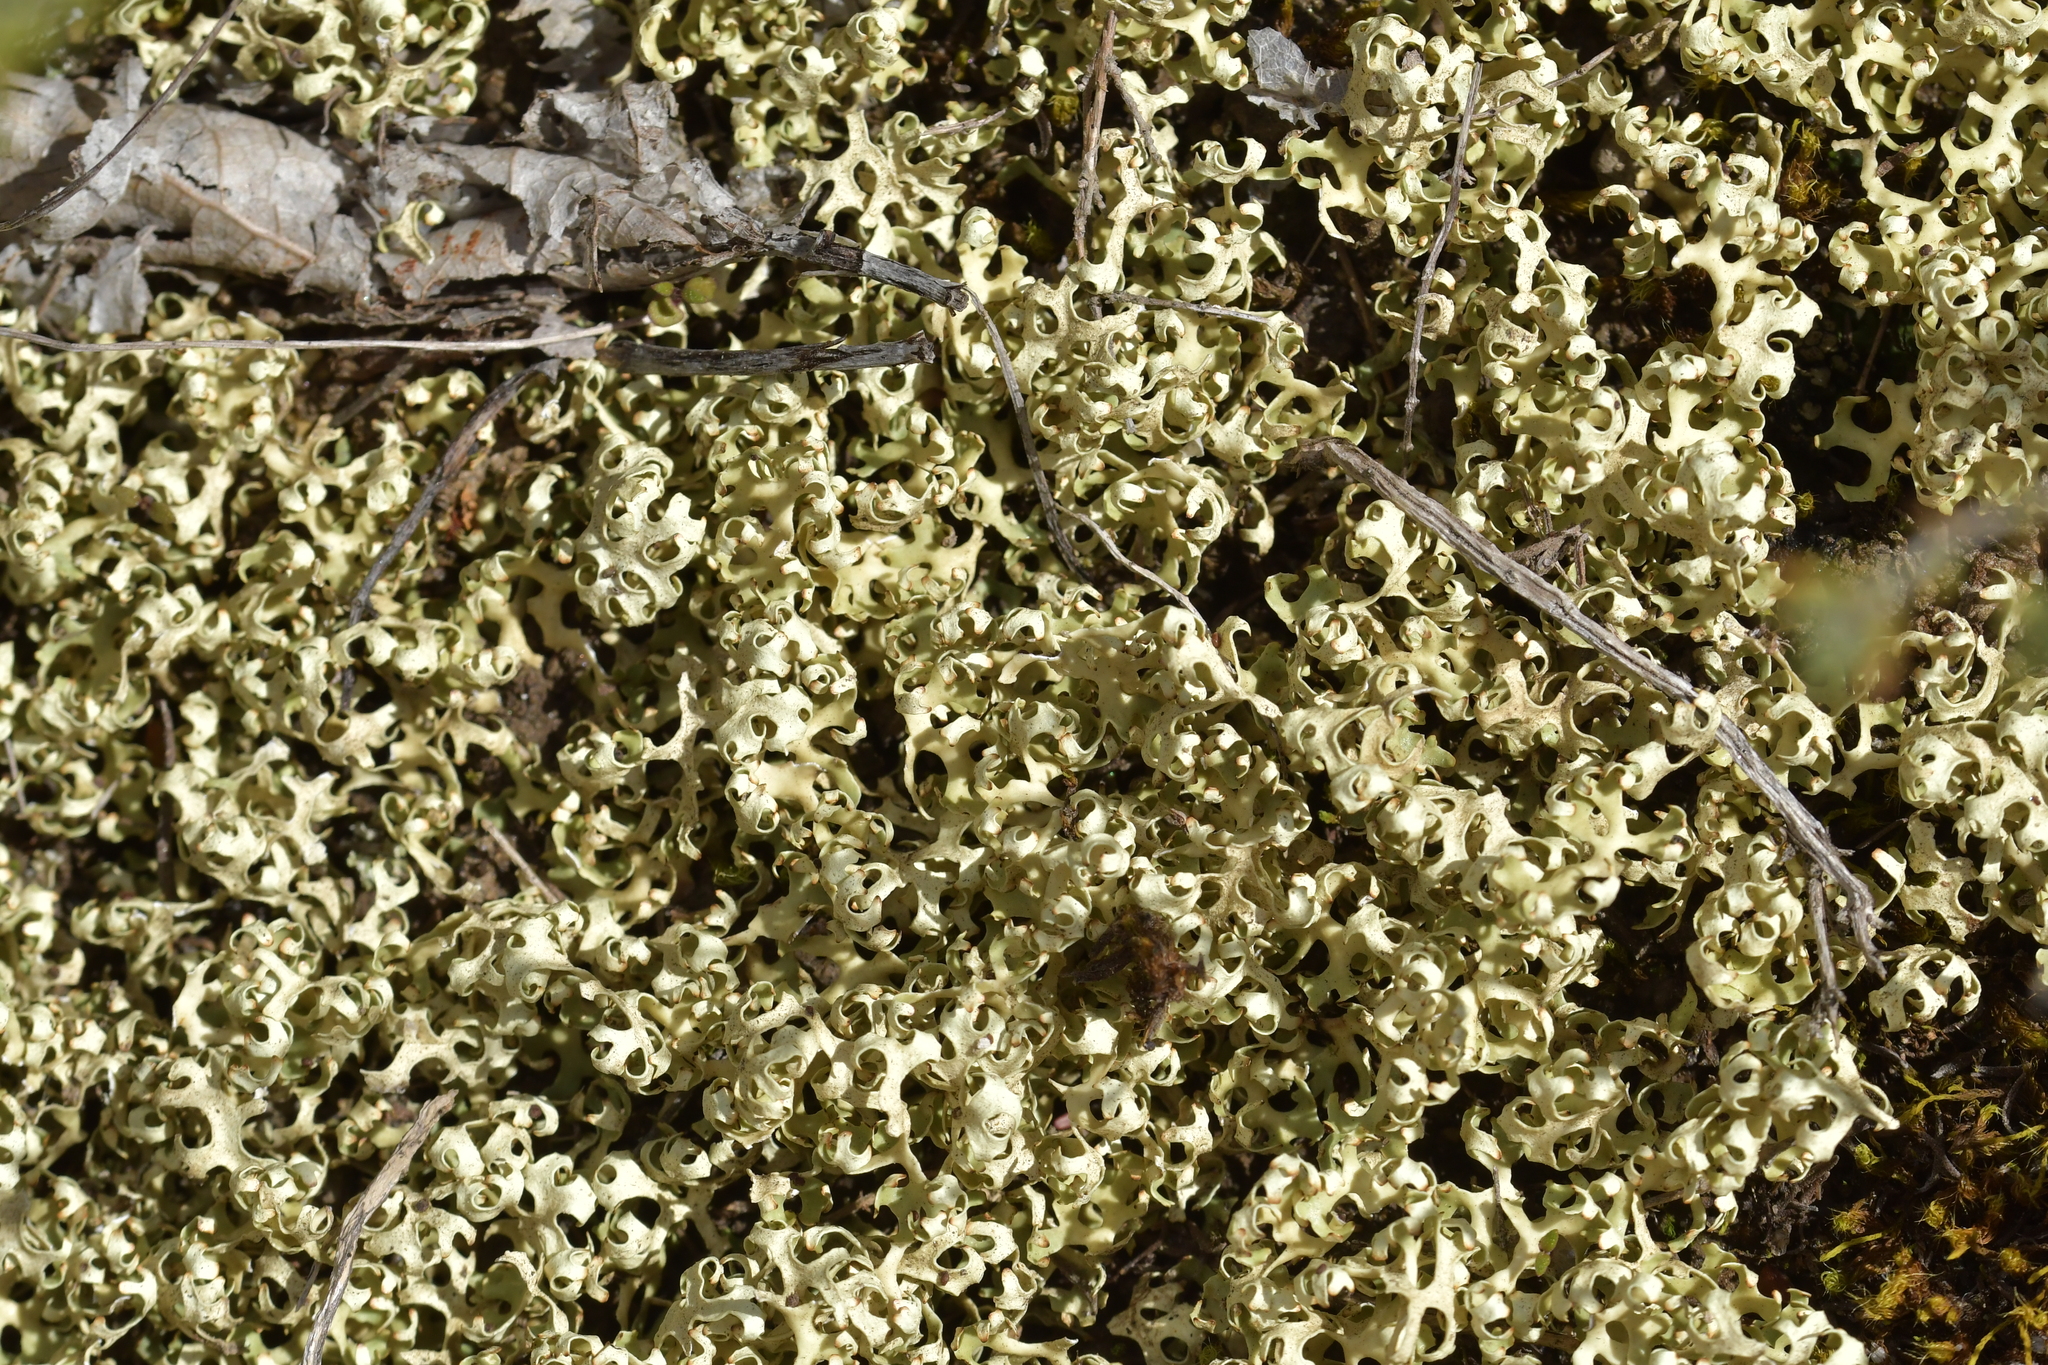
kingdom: Fungi
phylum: Ascomycota
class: Lecanoromycetes
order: Lecanorales
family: Parmeliaceae
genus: Xanthoparmelia
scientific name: Xanthoparmelia semiviridis
